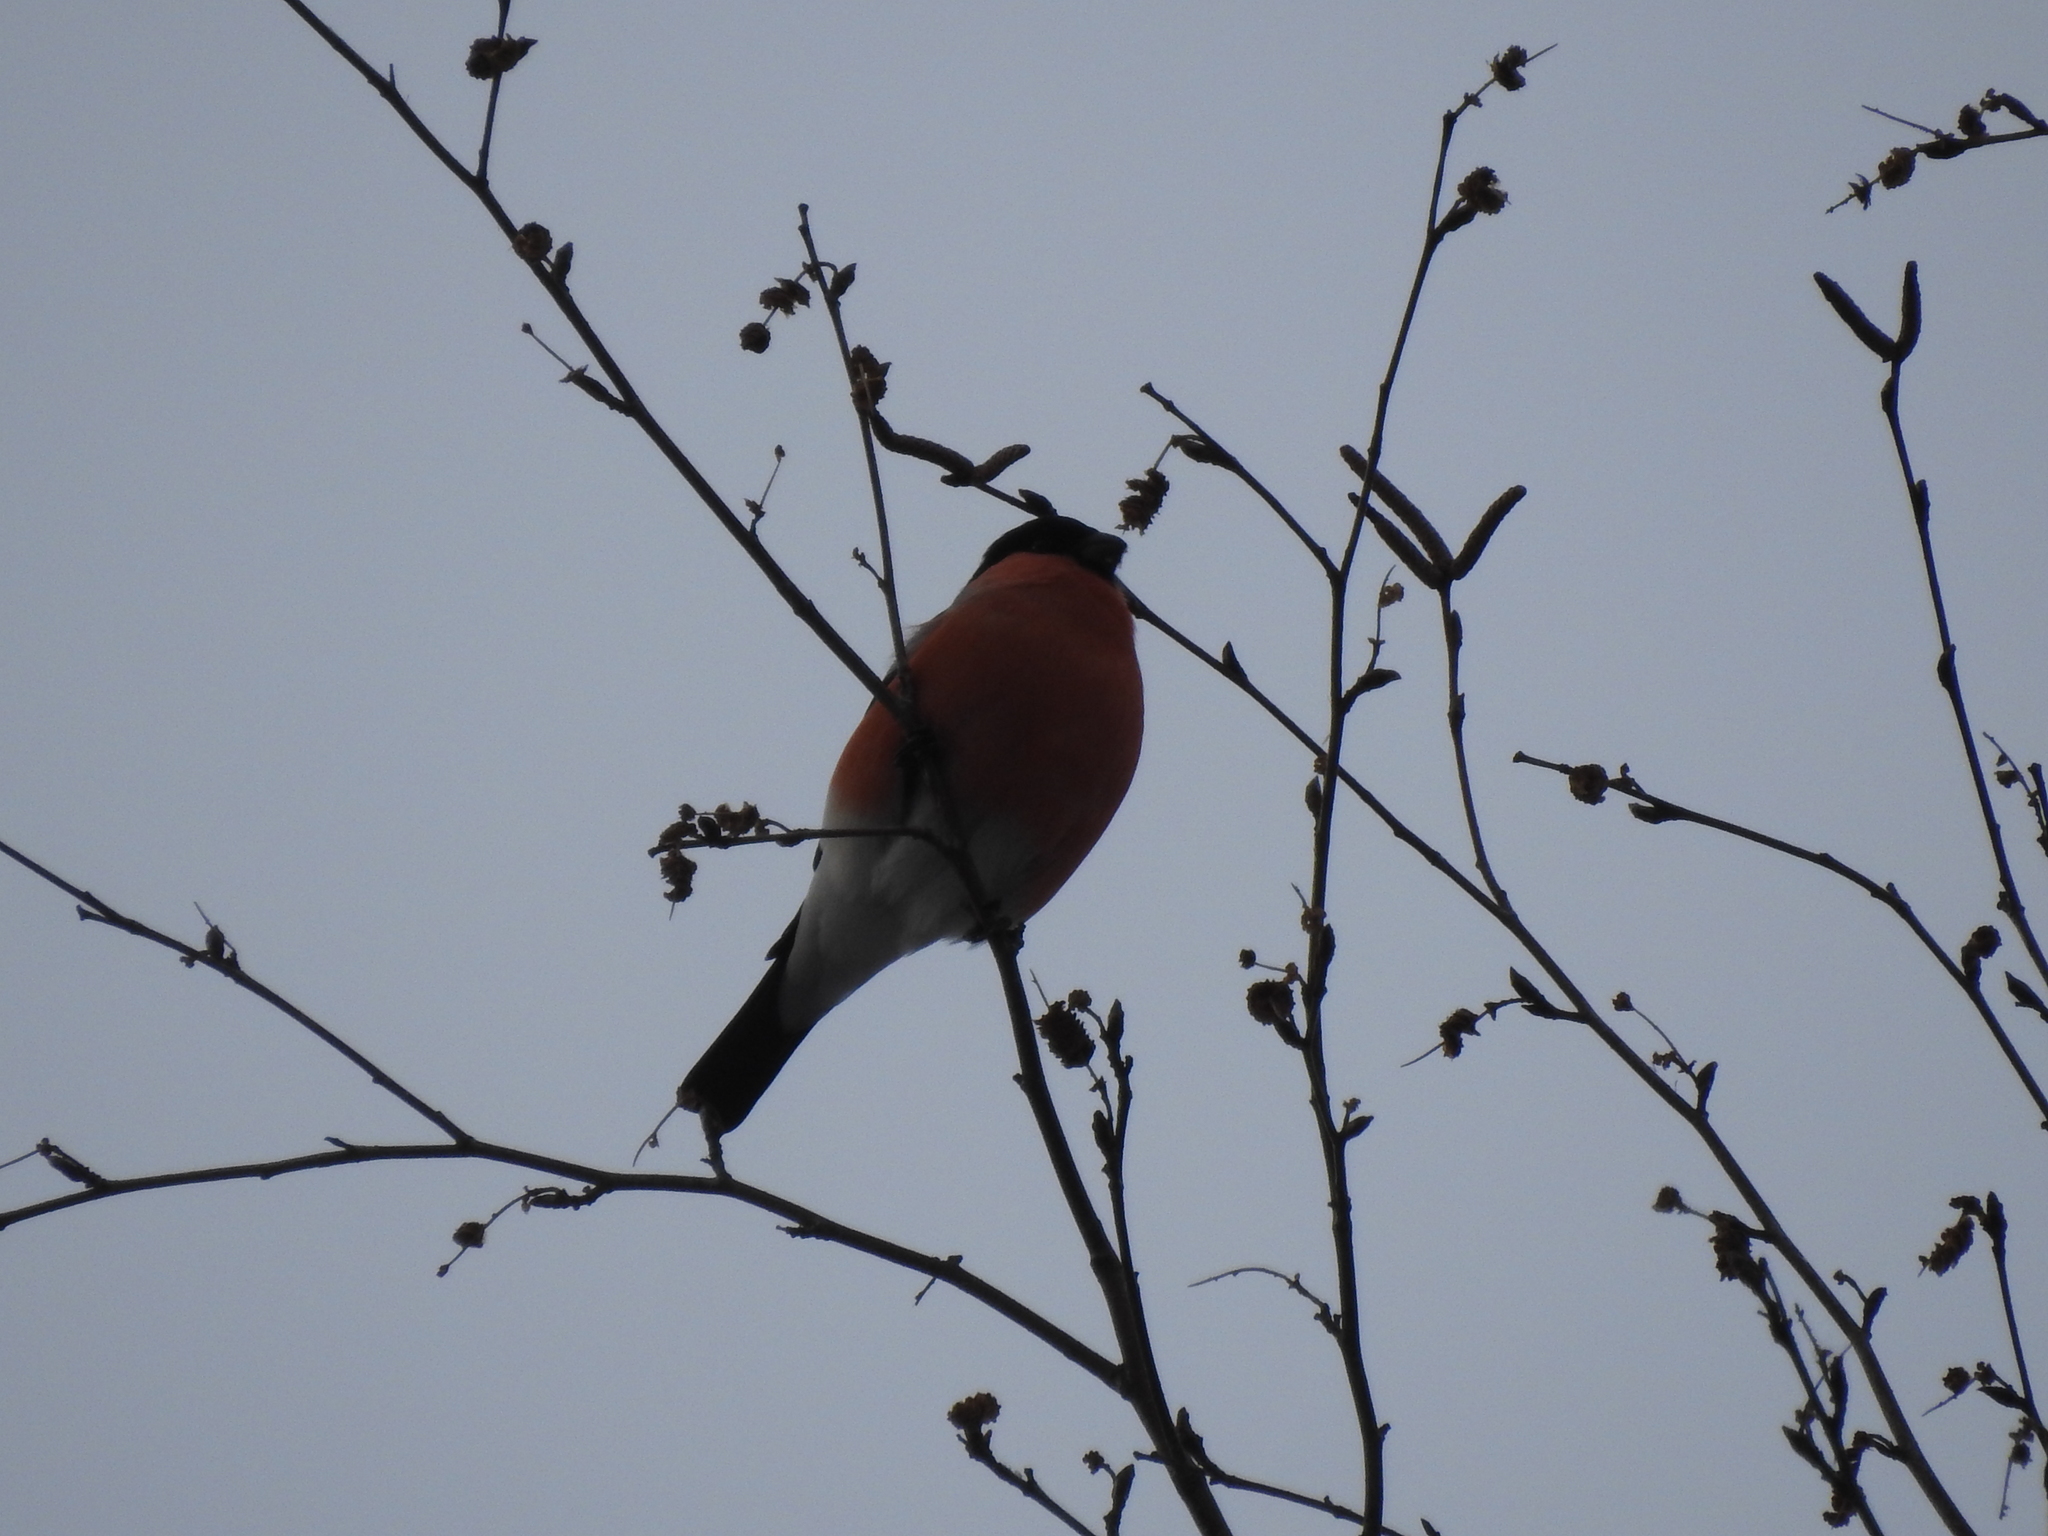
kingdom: Animalia
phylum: Chordata
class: Aves
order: Passeriformes
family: Fringillidae
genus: Pyrrhula
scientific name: Pyrrhula pyrrhula
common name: Eurasian bullfinch
